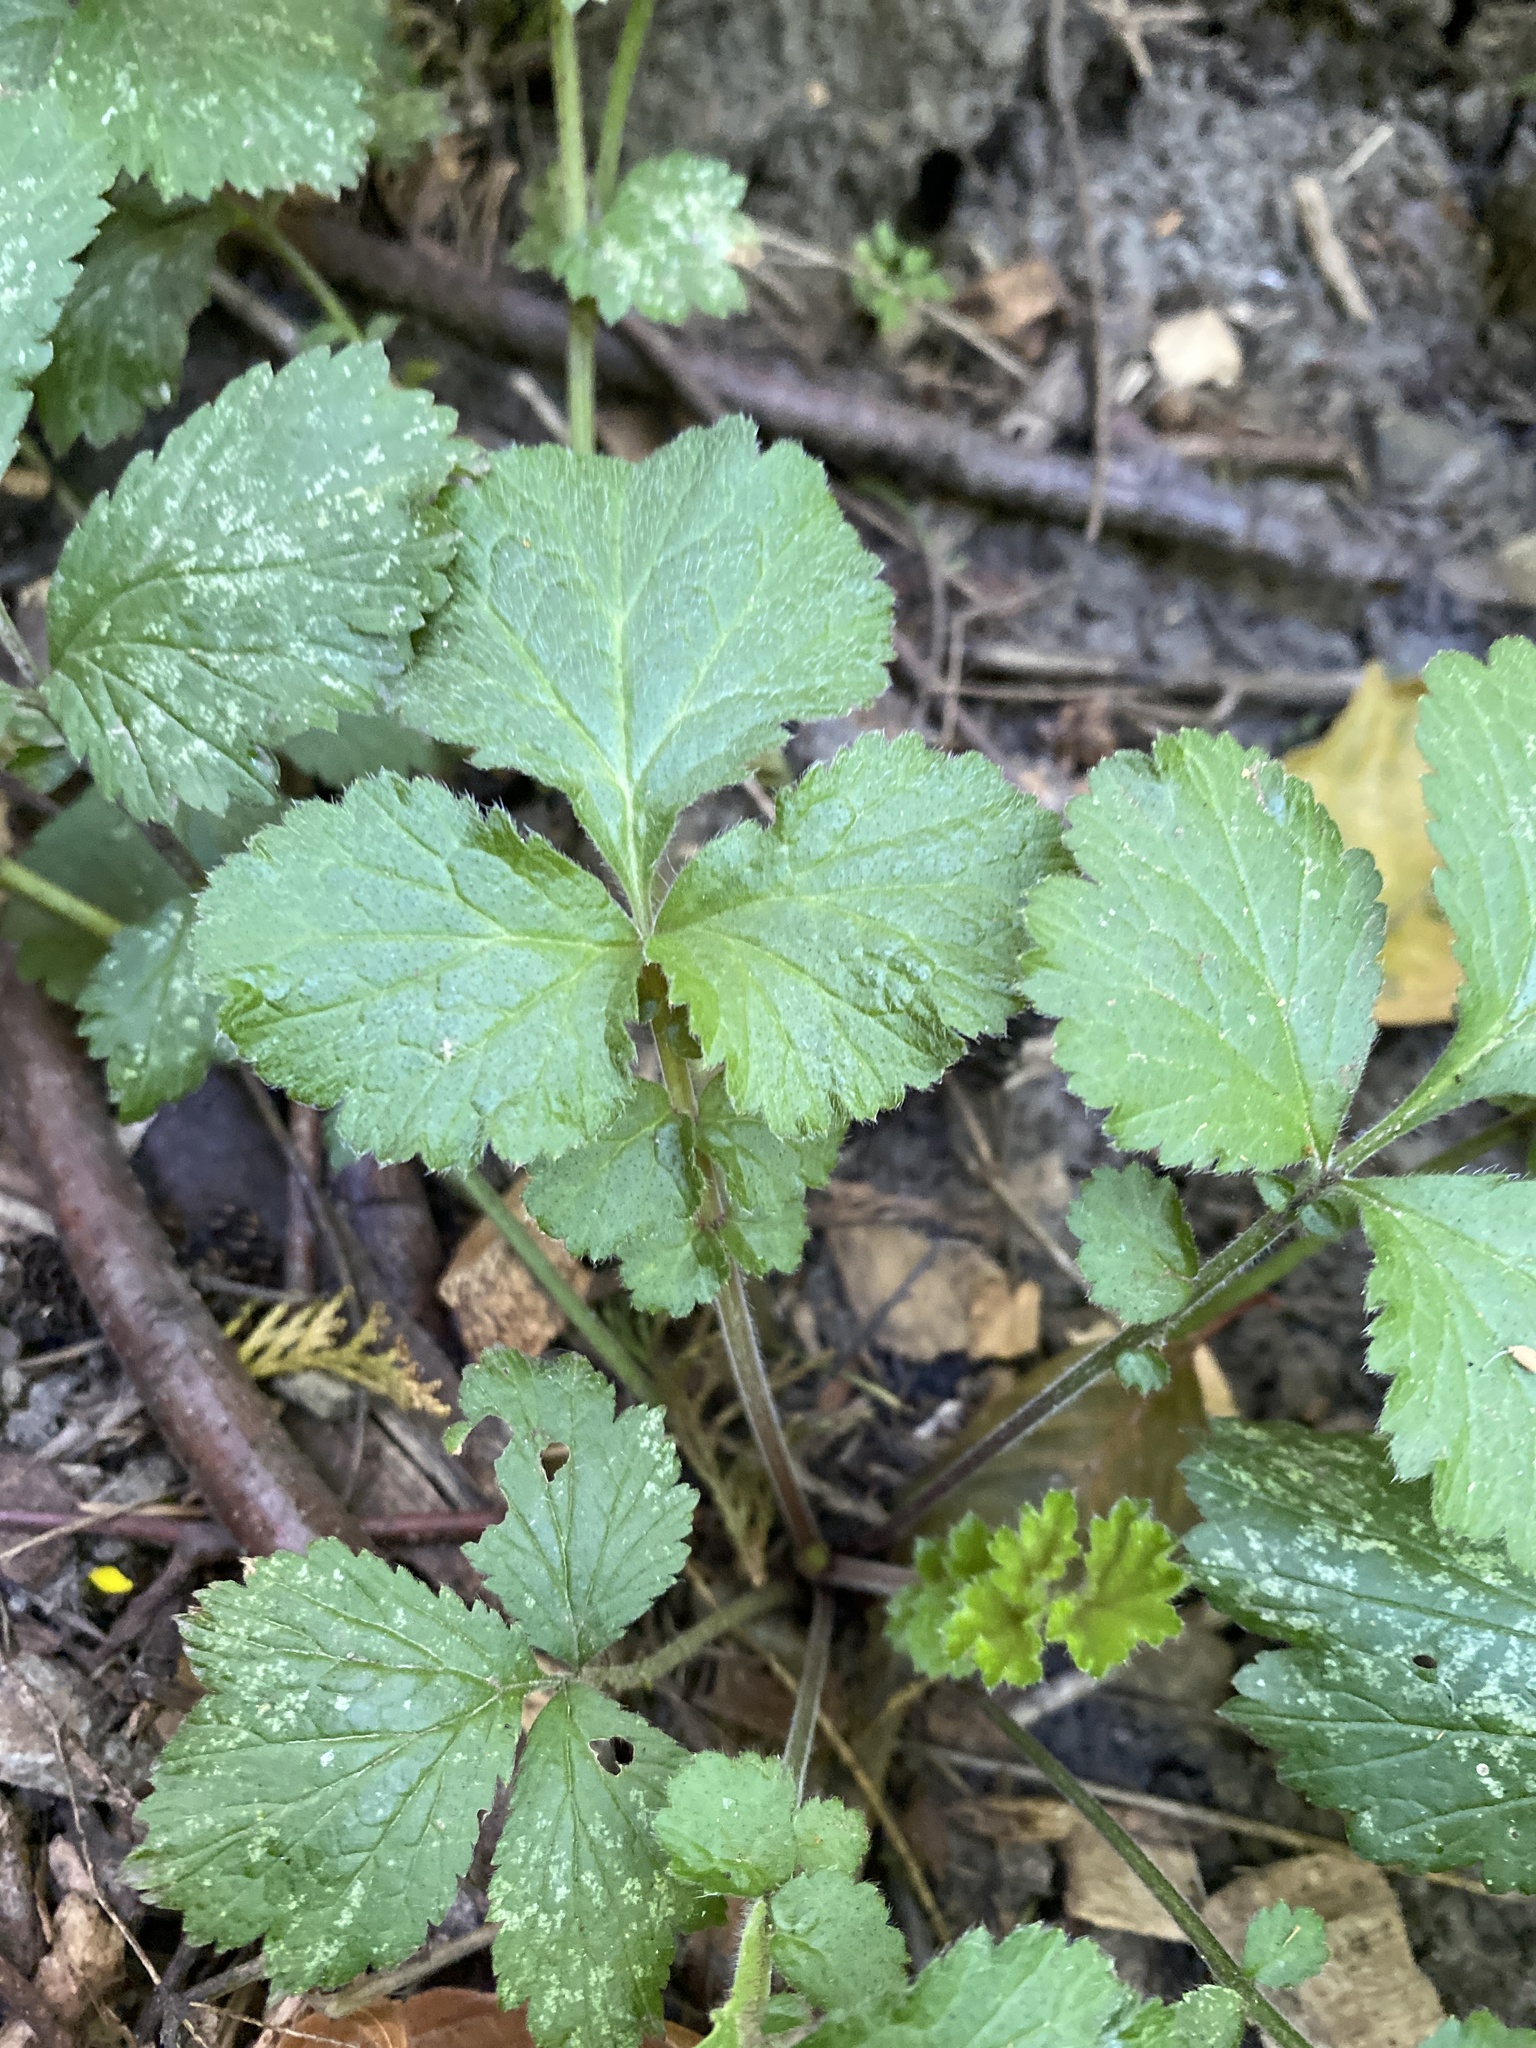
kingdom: Plantae
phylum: Tracheophyta
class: Magnoliopsida
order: Rosales
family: Rosaceae
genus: Geum
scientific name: Geum urbanum
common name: Wood avens
